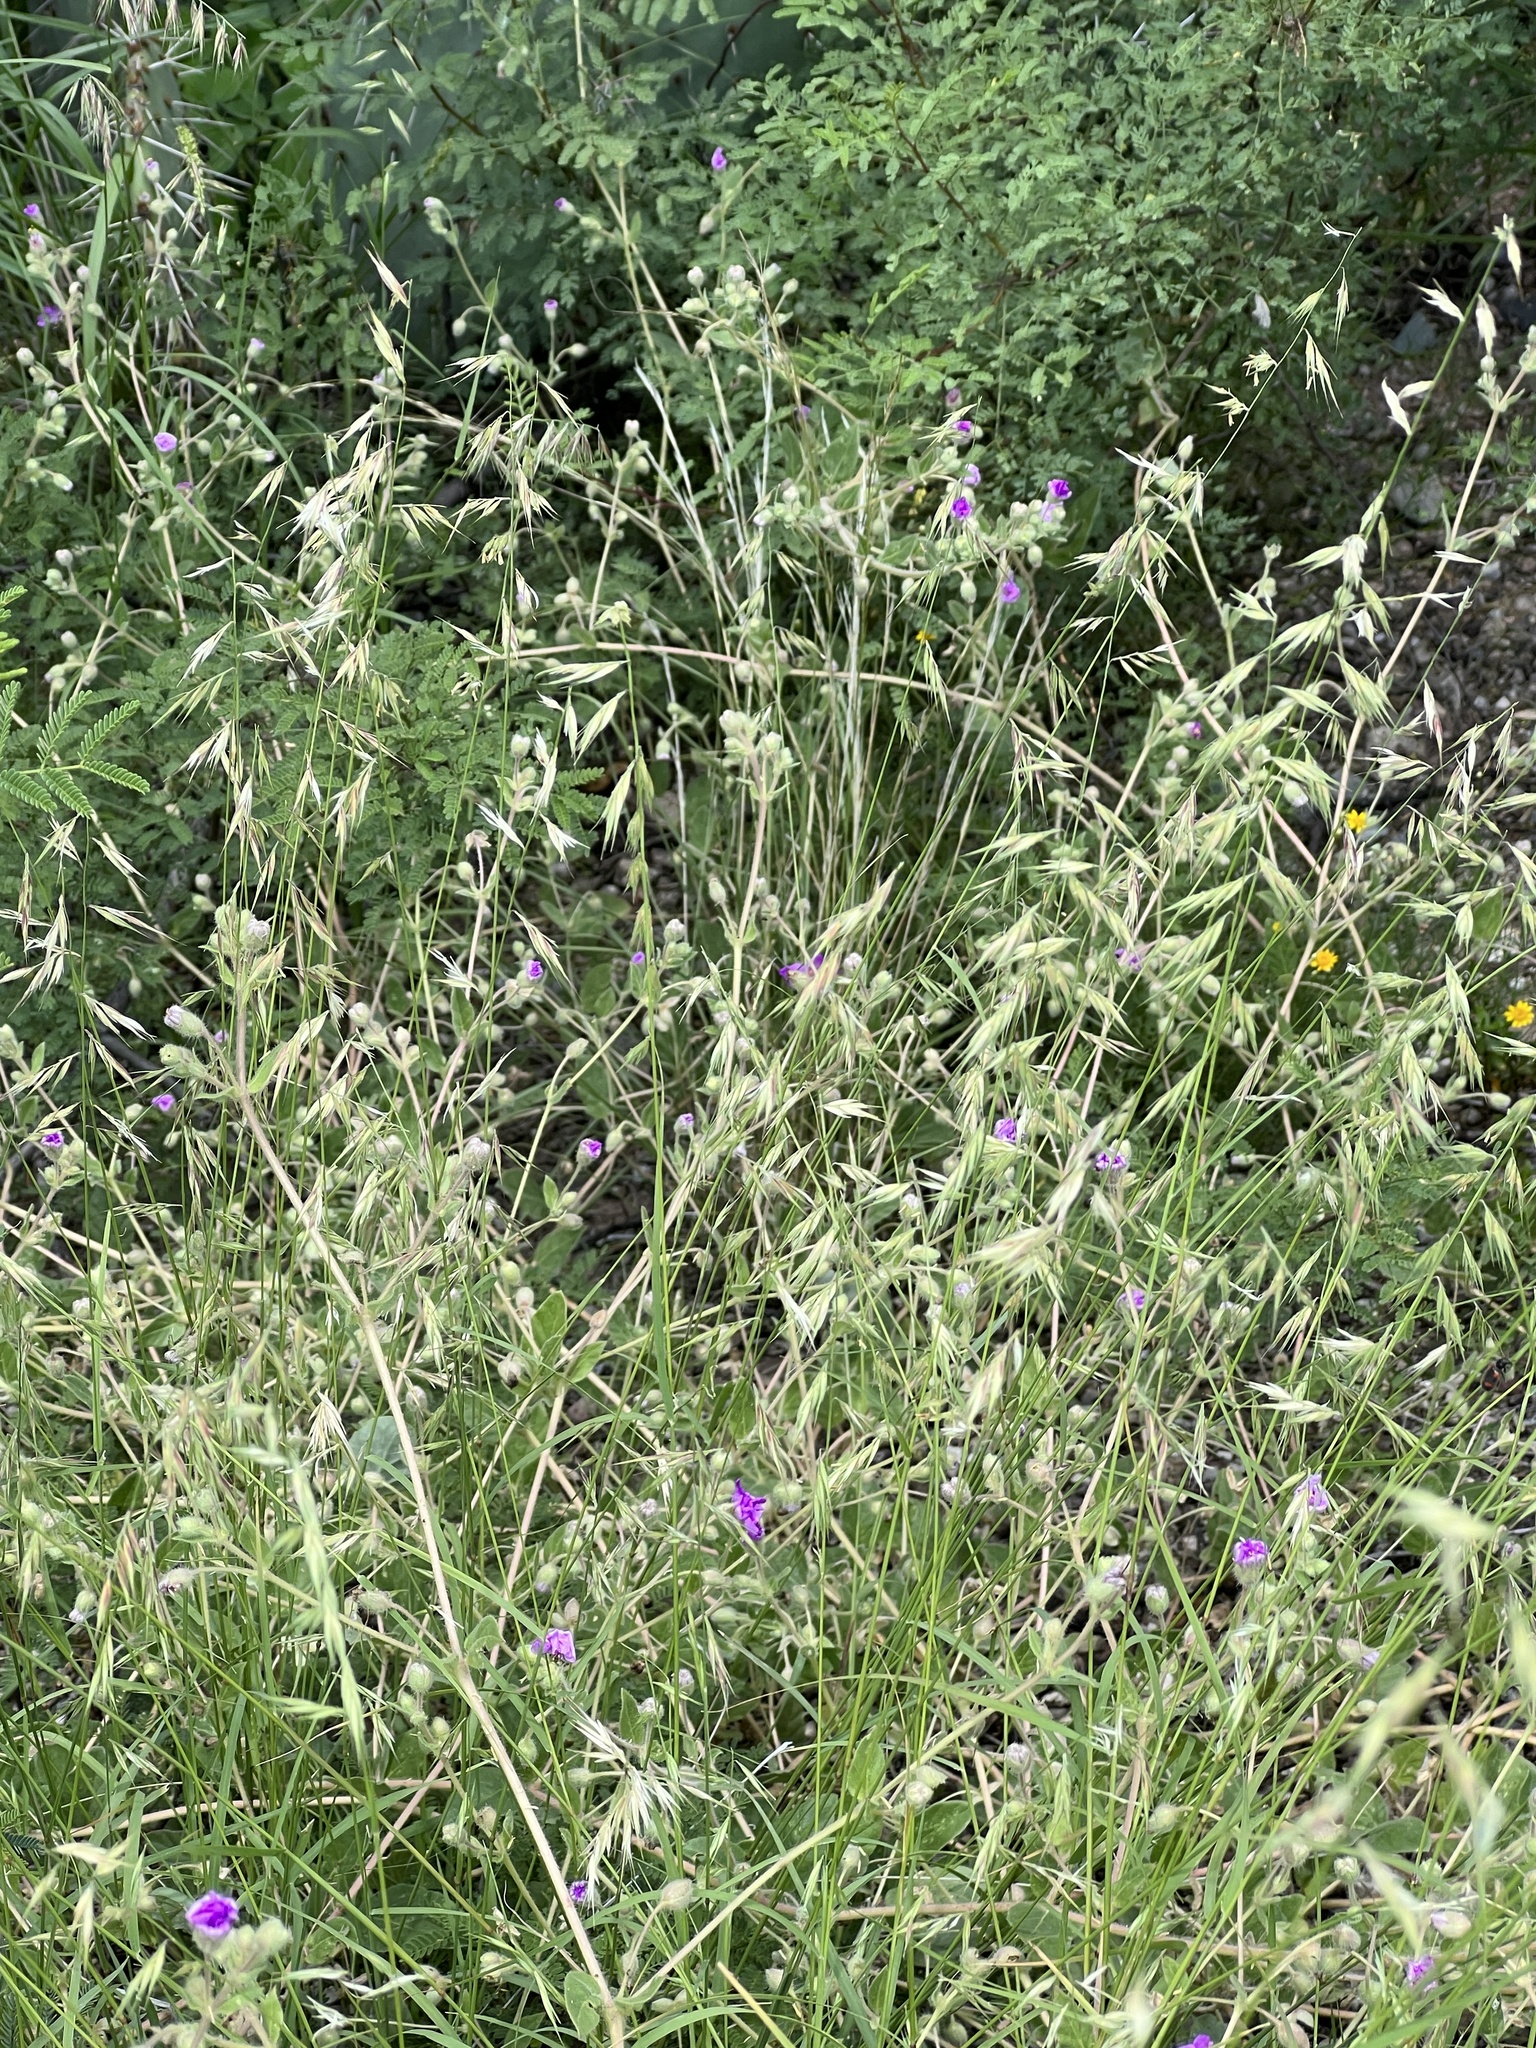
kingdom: Plantae
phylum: Tracheophyta
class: Liliopsida
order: Poales
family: Poaceae
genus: Bouteloua
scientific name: Bouteloua repens
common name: Slender grama
